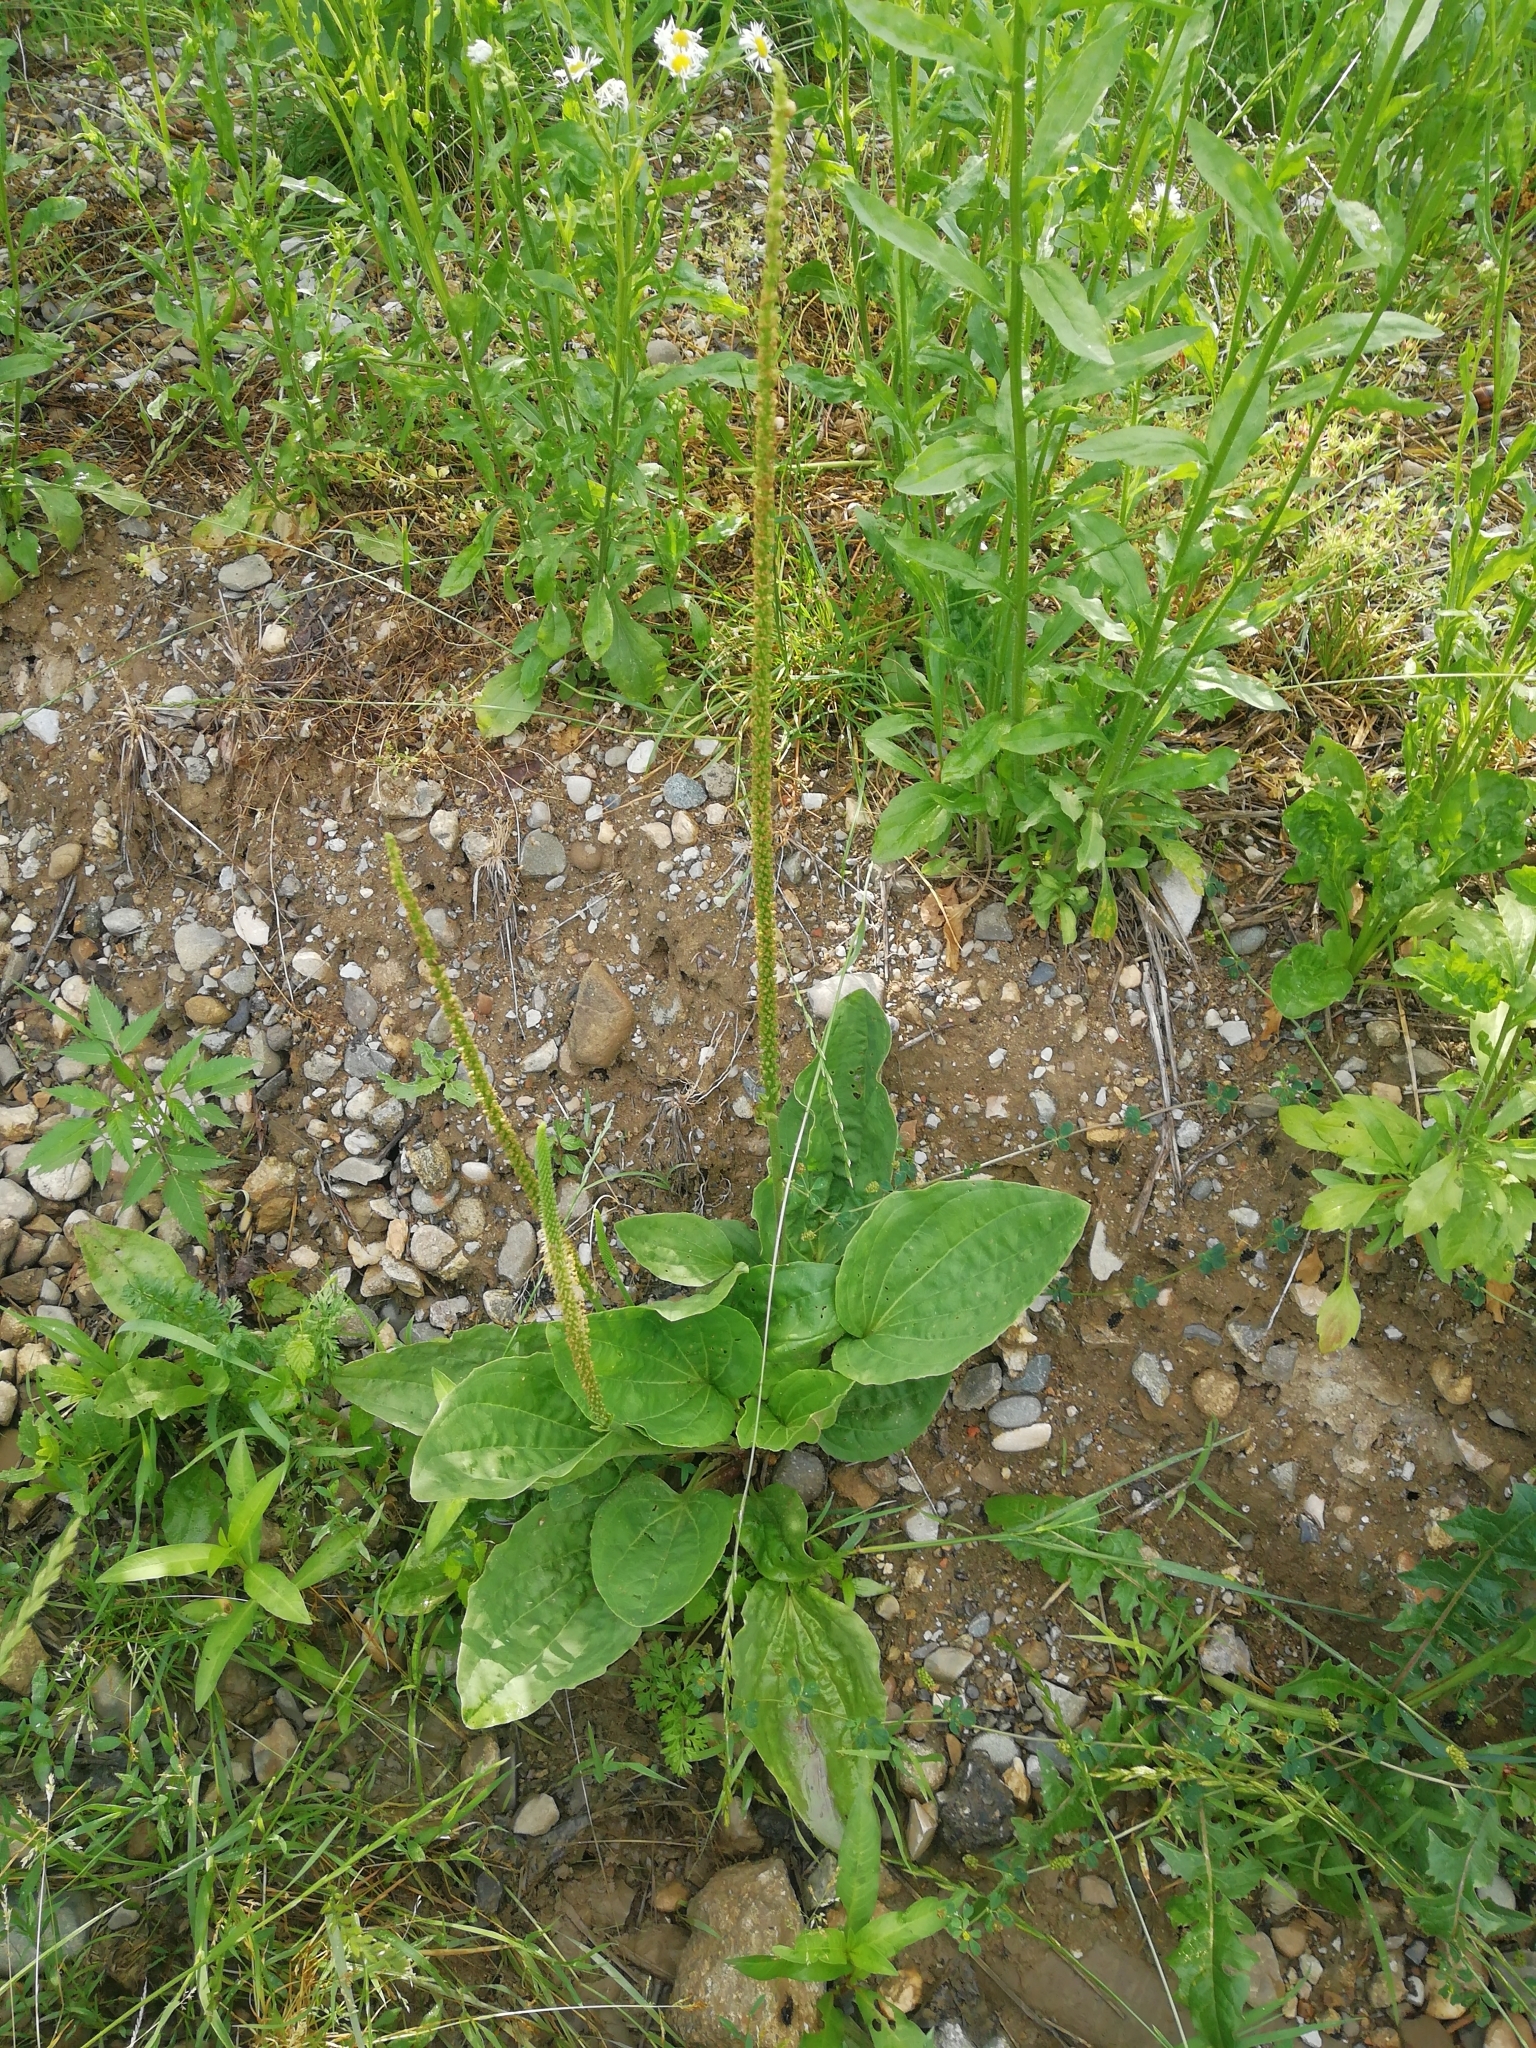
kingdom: Plantae
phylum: Tracheophyta
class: Magnoliopsida
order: Lamiales
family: Plantaginaceae
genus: Plantago
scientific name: Plantago major
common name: Common plantain
